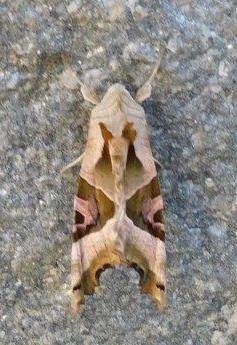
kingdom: Animalia
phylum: Arthropoda
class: Insecta
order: Lepidoptera
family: Noctuidae
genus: Phlogophora
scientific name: Phlogophora meticulosa
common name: Angle shades
